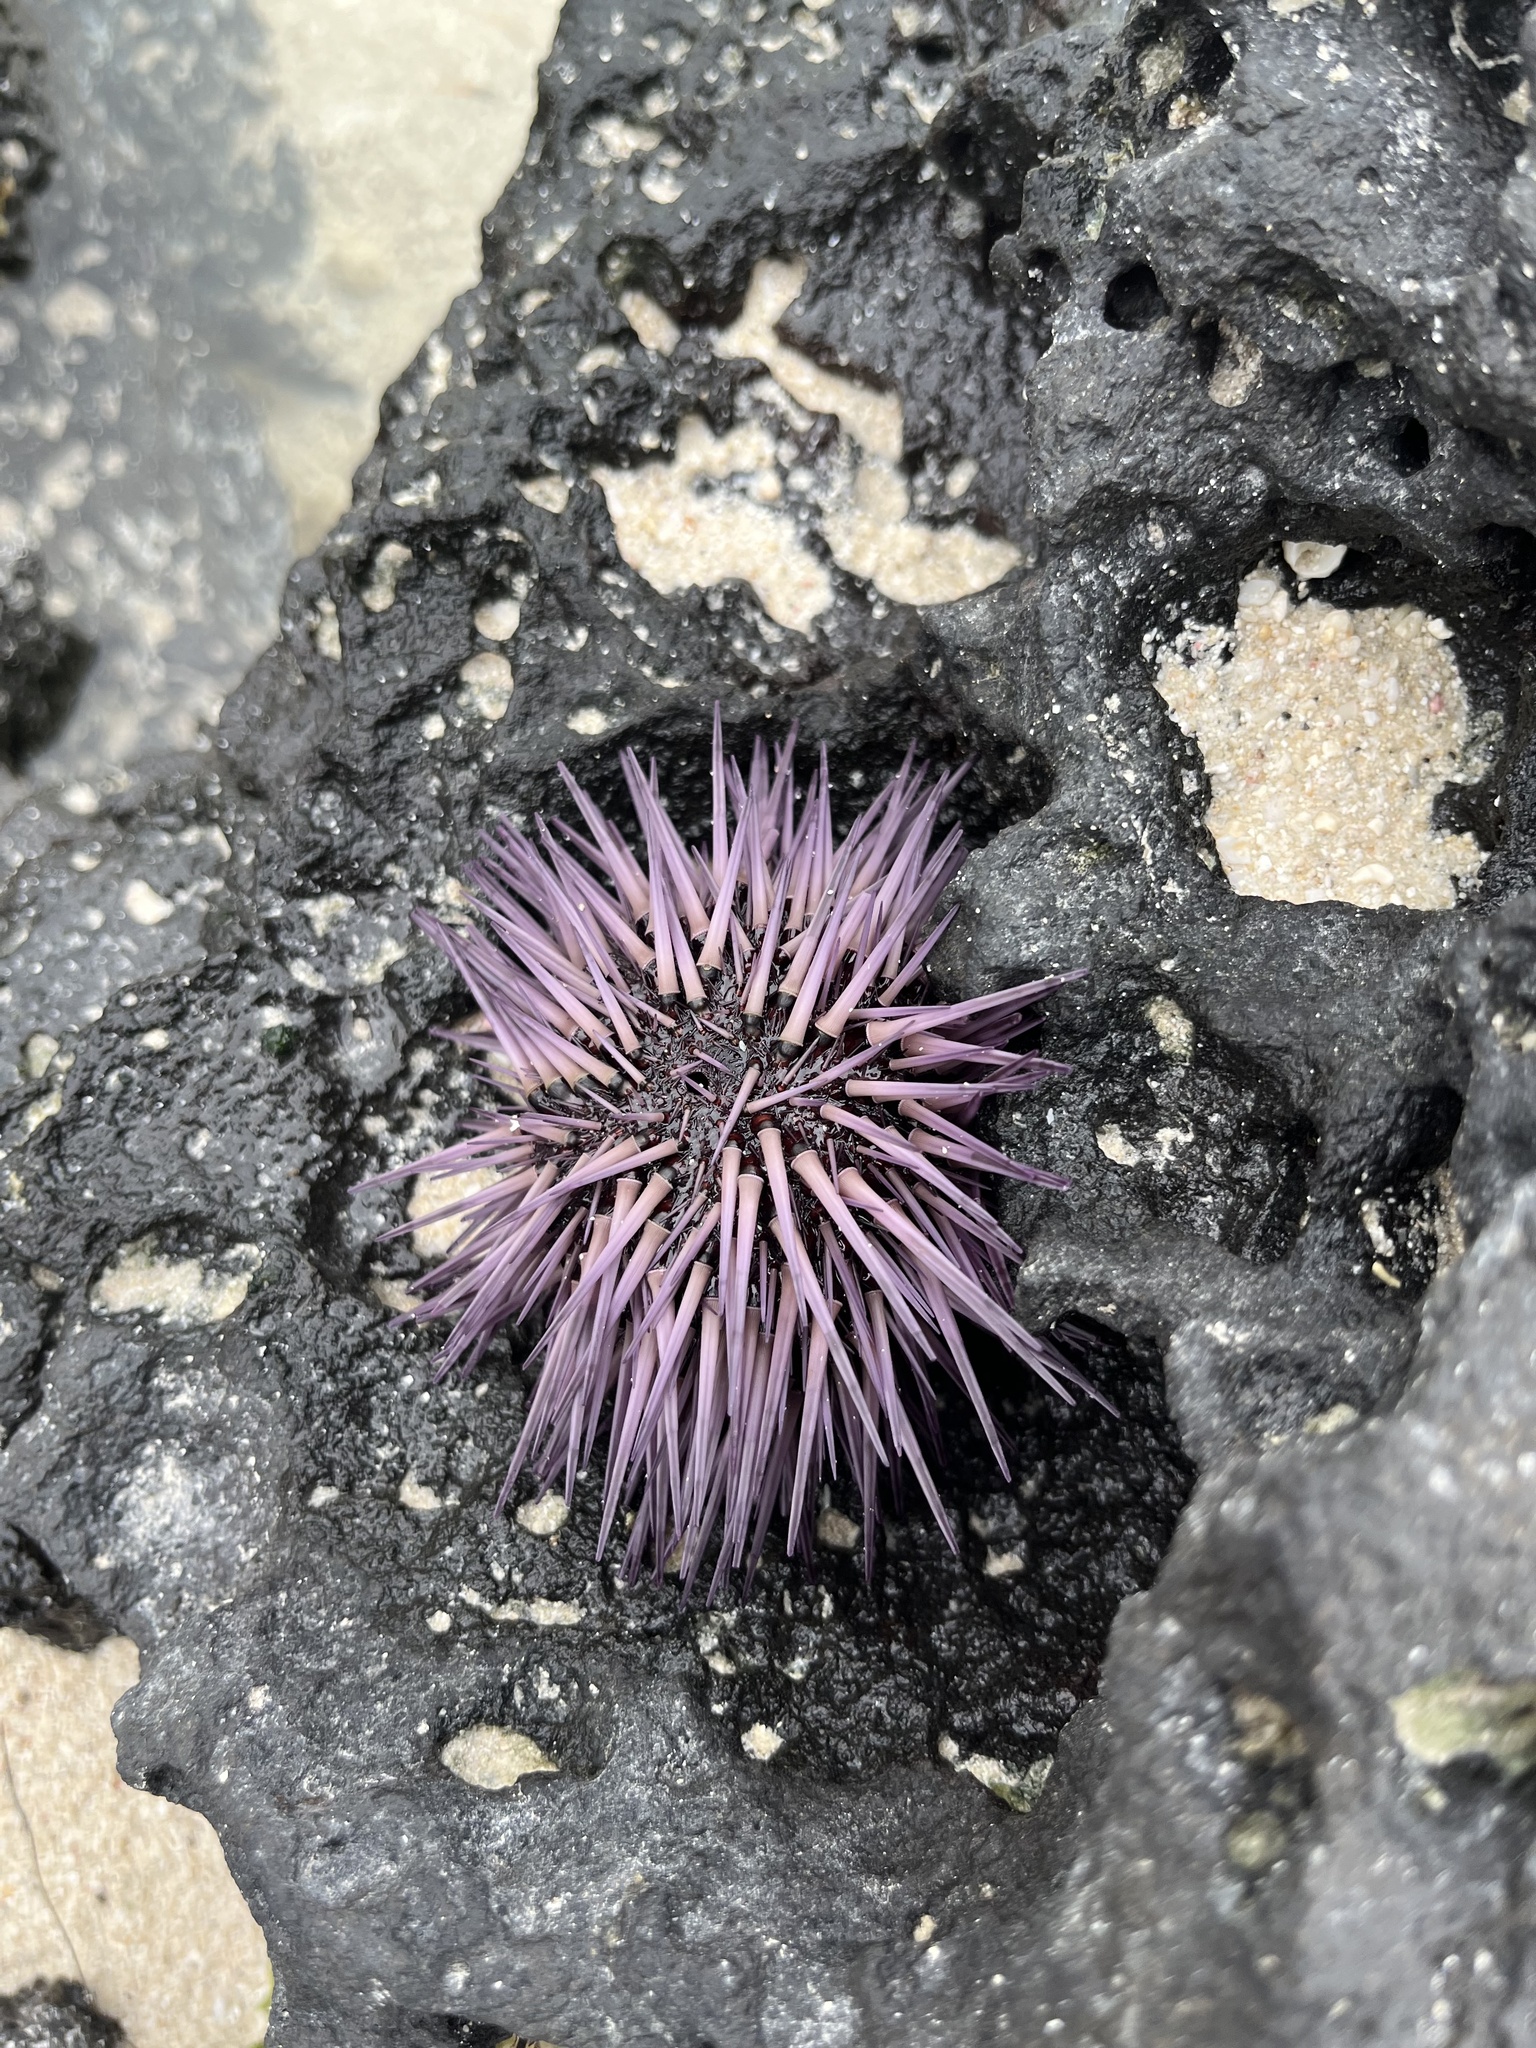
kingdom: Animalia
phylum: Echinodermata
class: Echinoidea
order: Camarodonta
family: Echinometridae
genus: Echinometra
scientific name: Echinometra mathaei
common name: Rock-boring urchin
